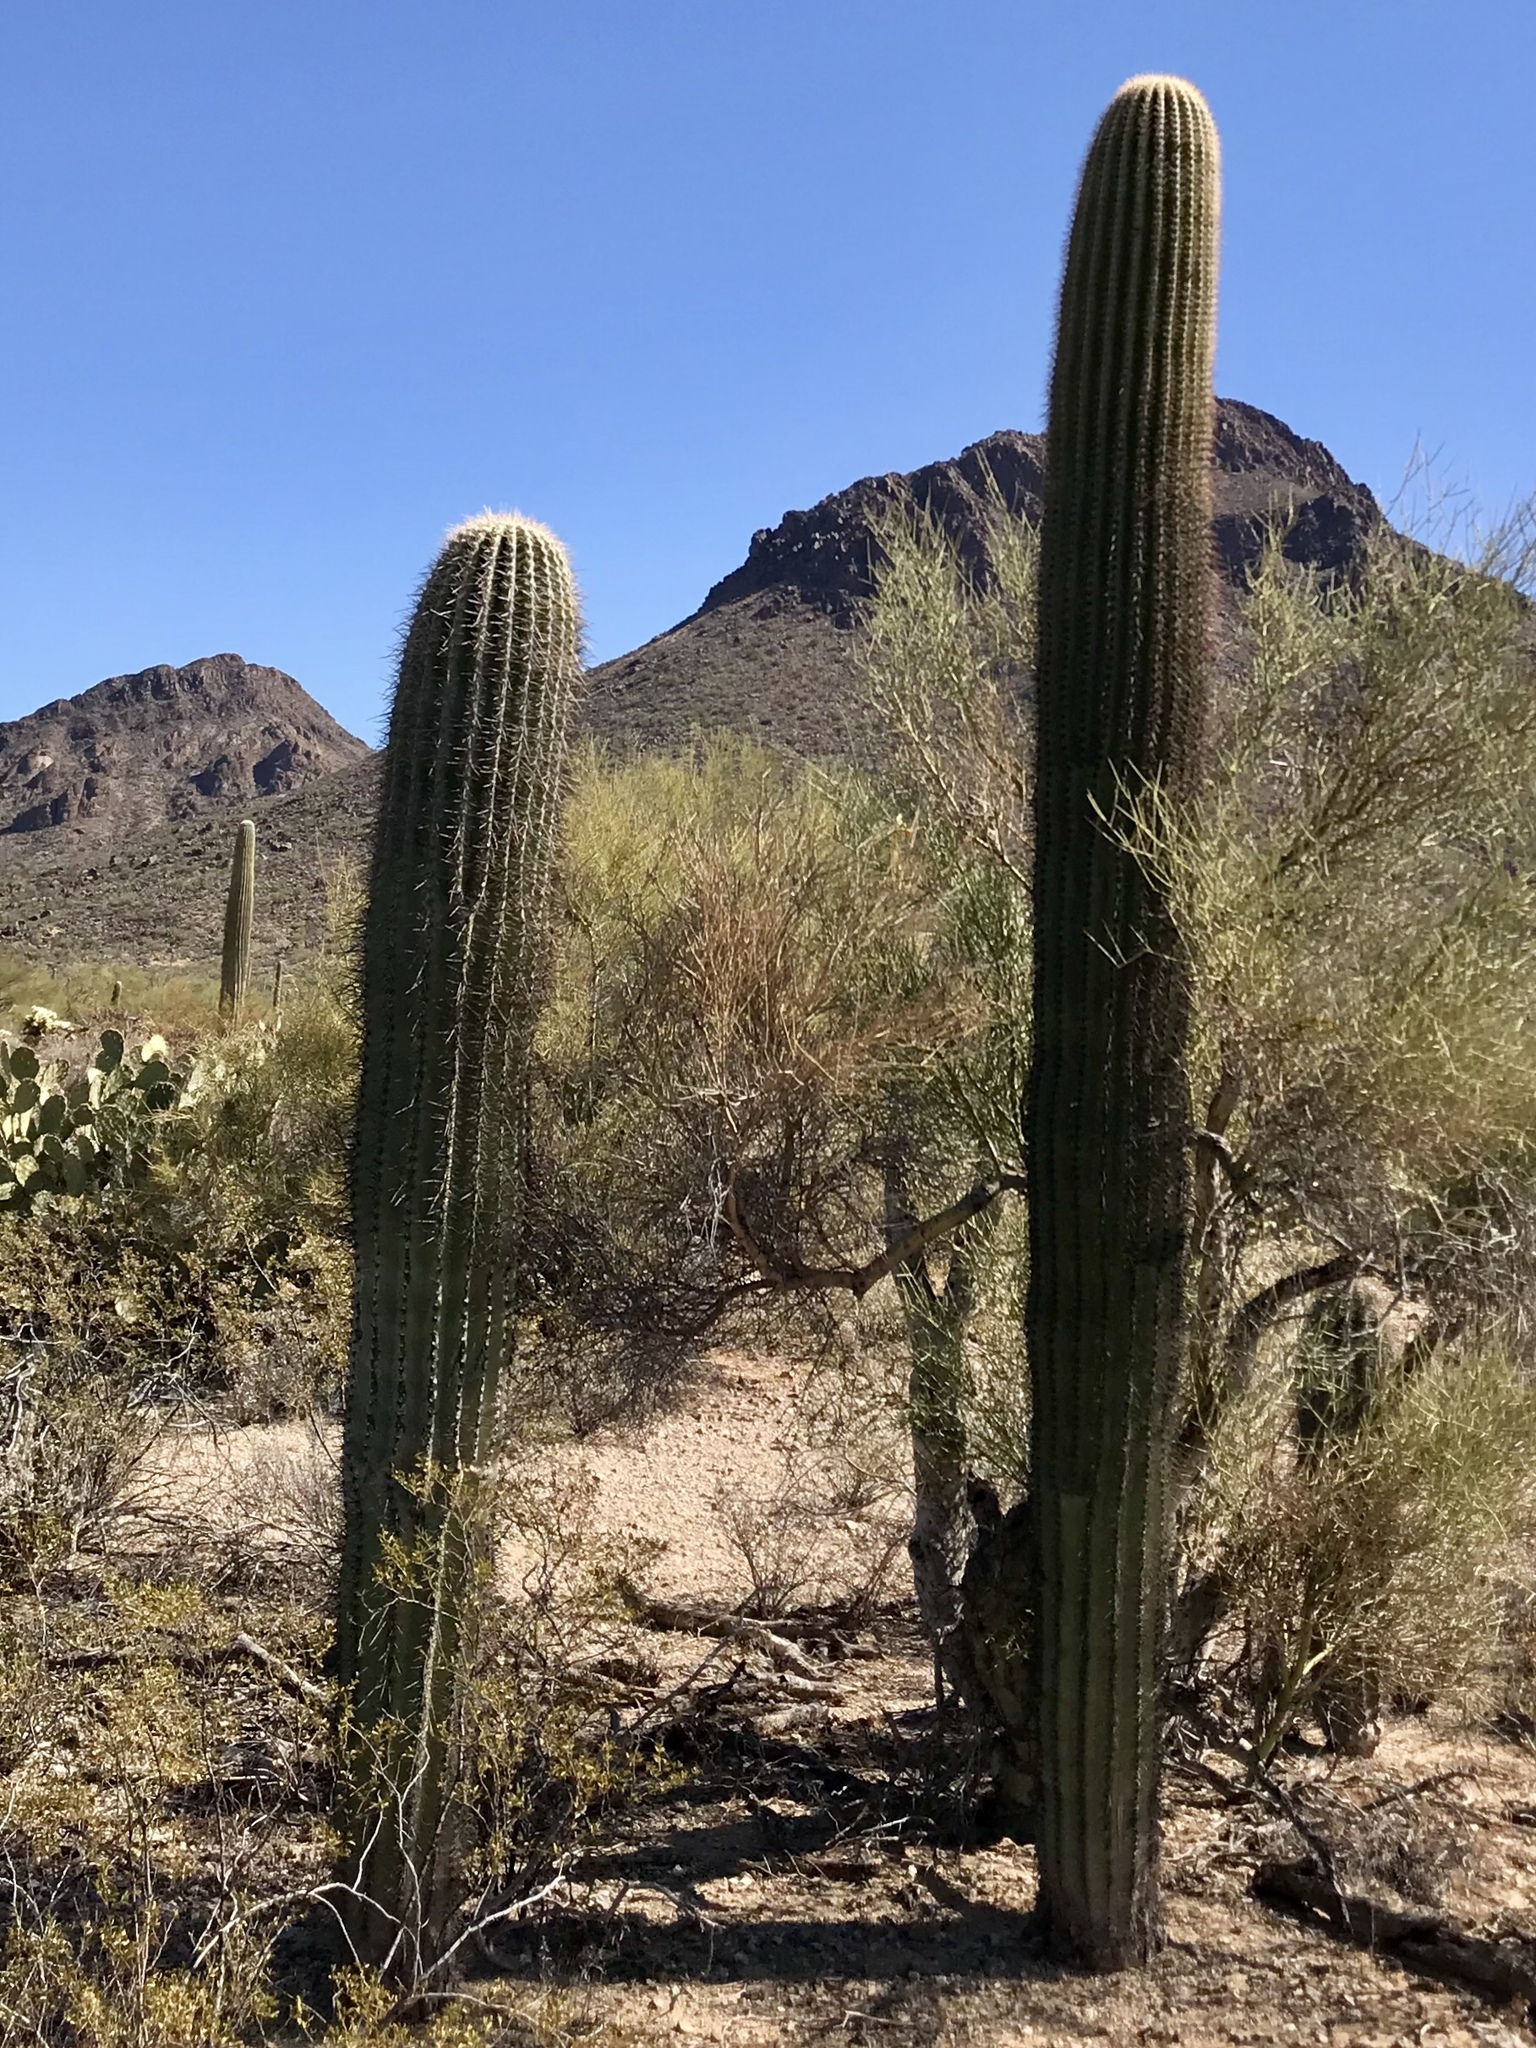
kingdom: Plantae
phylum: Tracheophyta
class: Magnoliopsida
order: Caryophyllales
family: Cactaceae
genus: Carnegiea
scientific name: Carnegiea gigantea
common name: Saguaro
